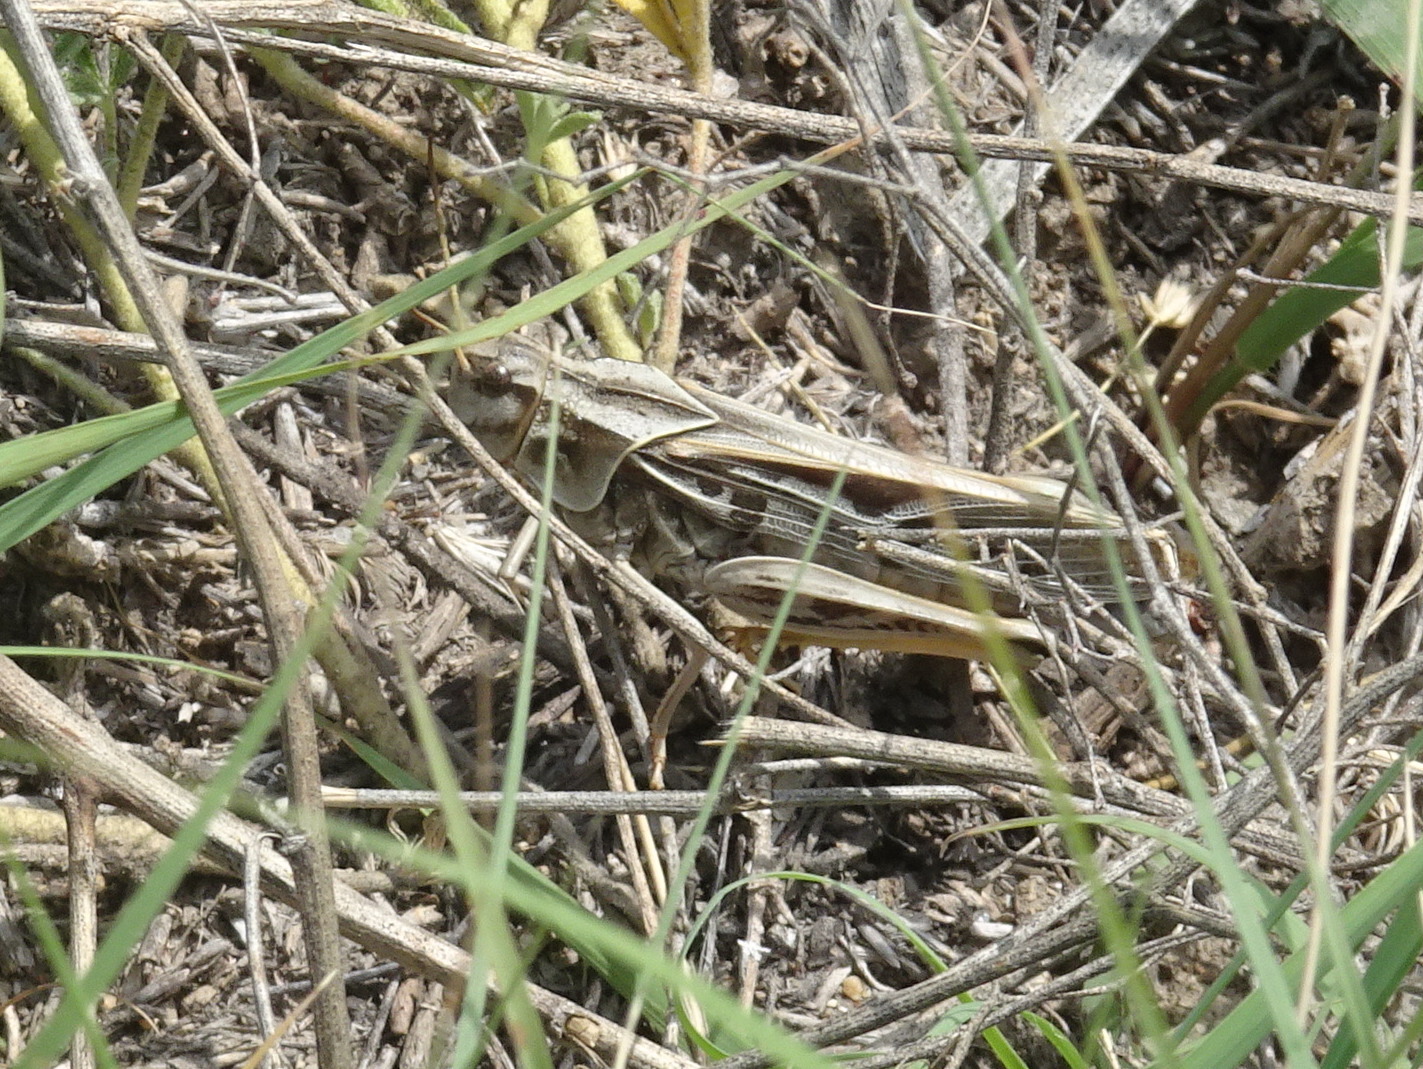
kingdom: Animalia
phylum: Arthropoda
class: Insecta
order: Orthoptera
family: Acrididae
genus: Pardalophora
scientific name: Pardalophora apiculata
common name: Coral-winged locust
